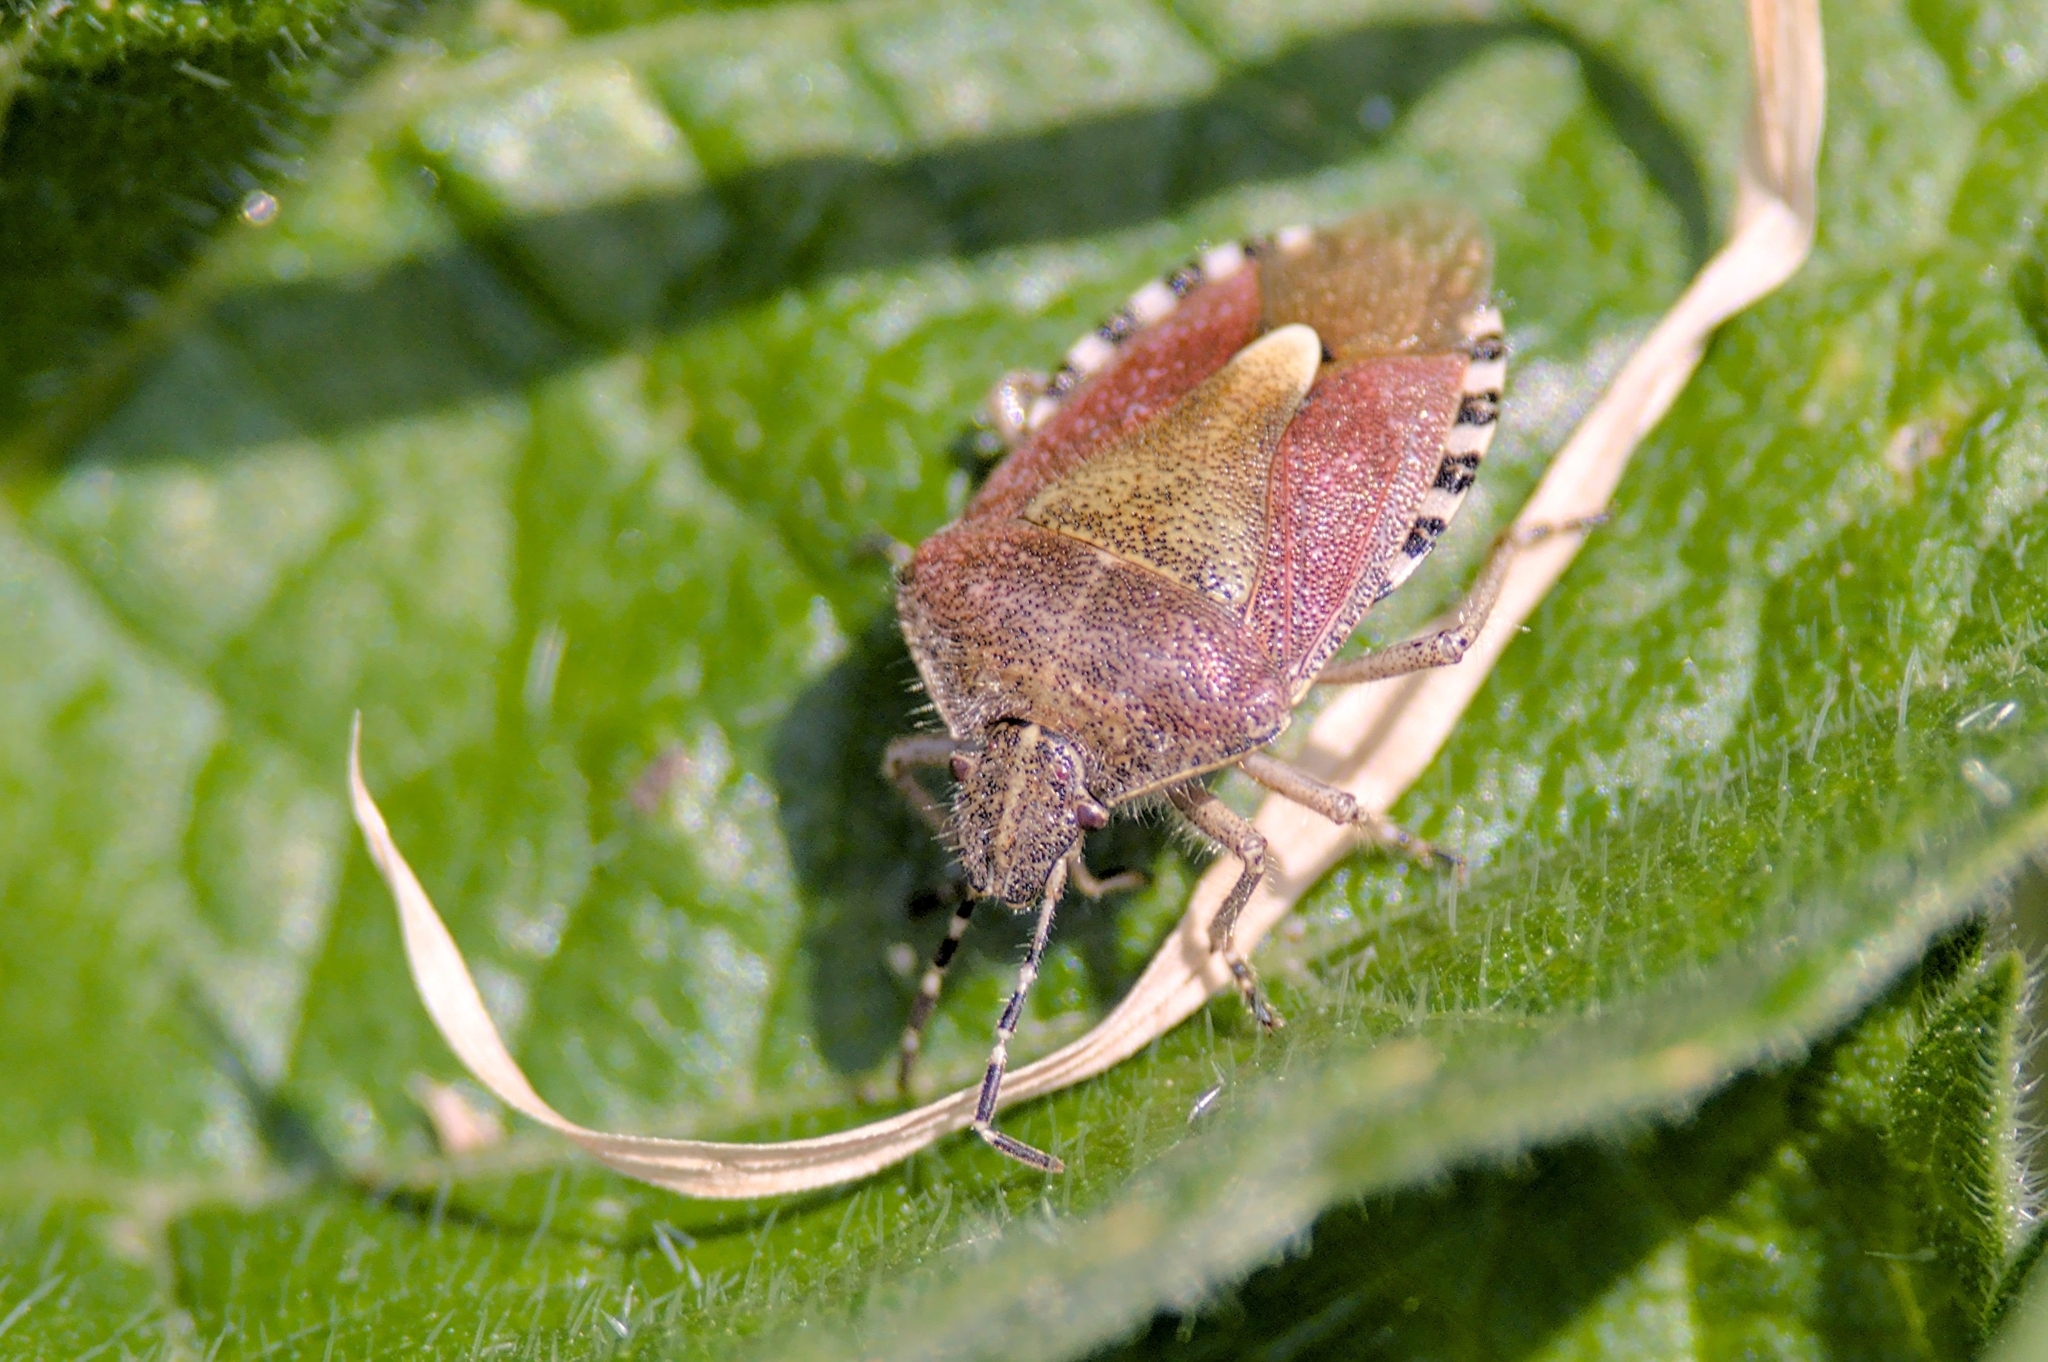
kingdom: Animalia
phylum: Arthropoda
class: Insecta
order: Hemiptera
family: Pentatomidae
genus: Dolycoris
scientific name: Dolycoris baccarum
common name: Sloe bug
